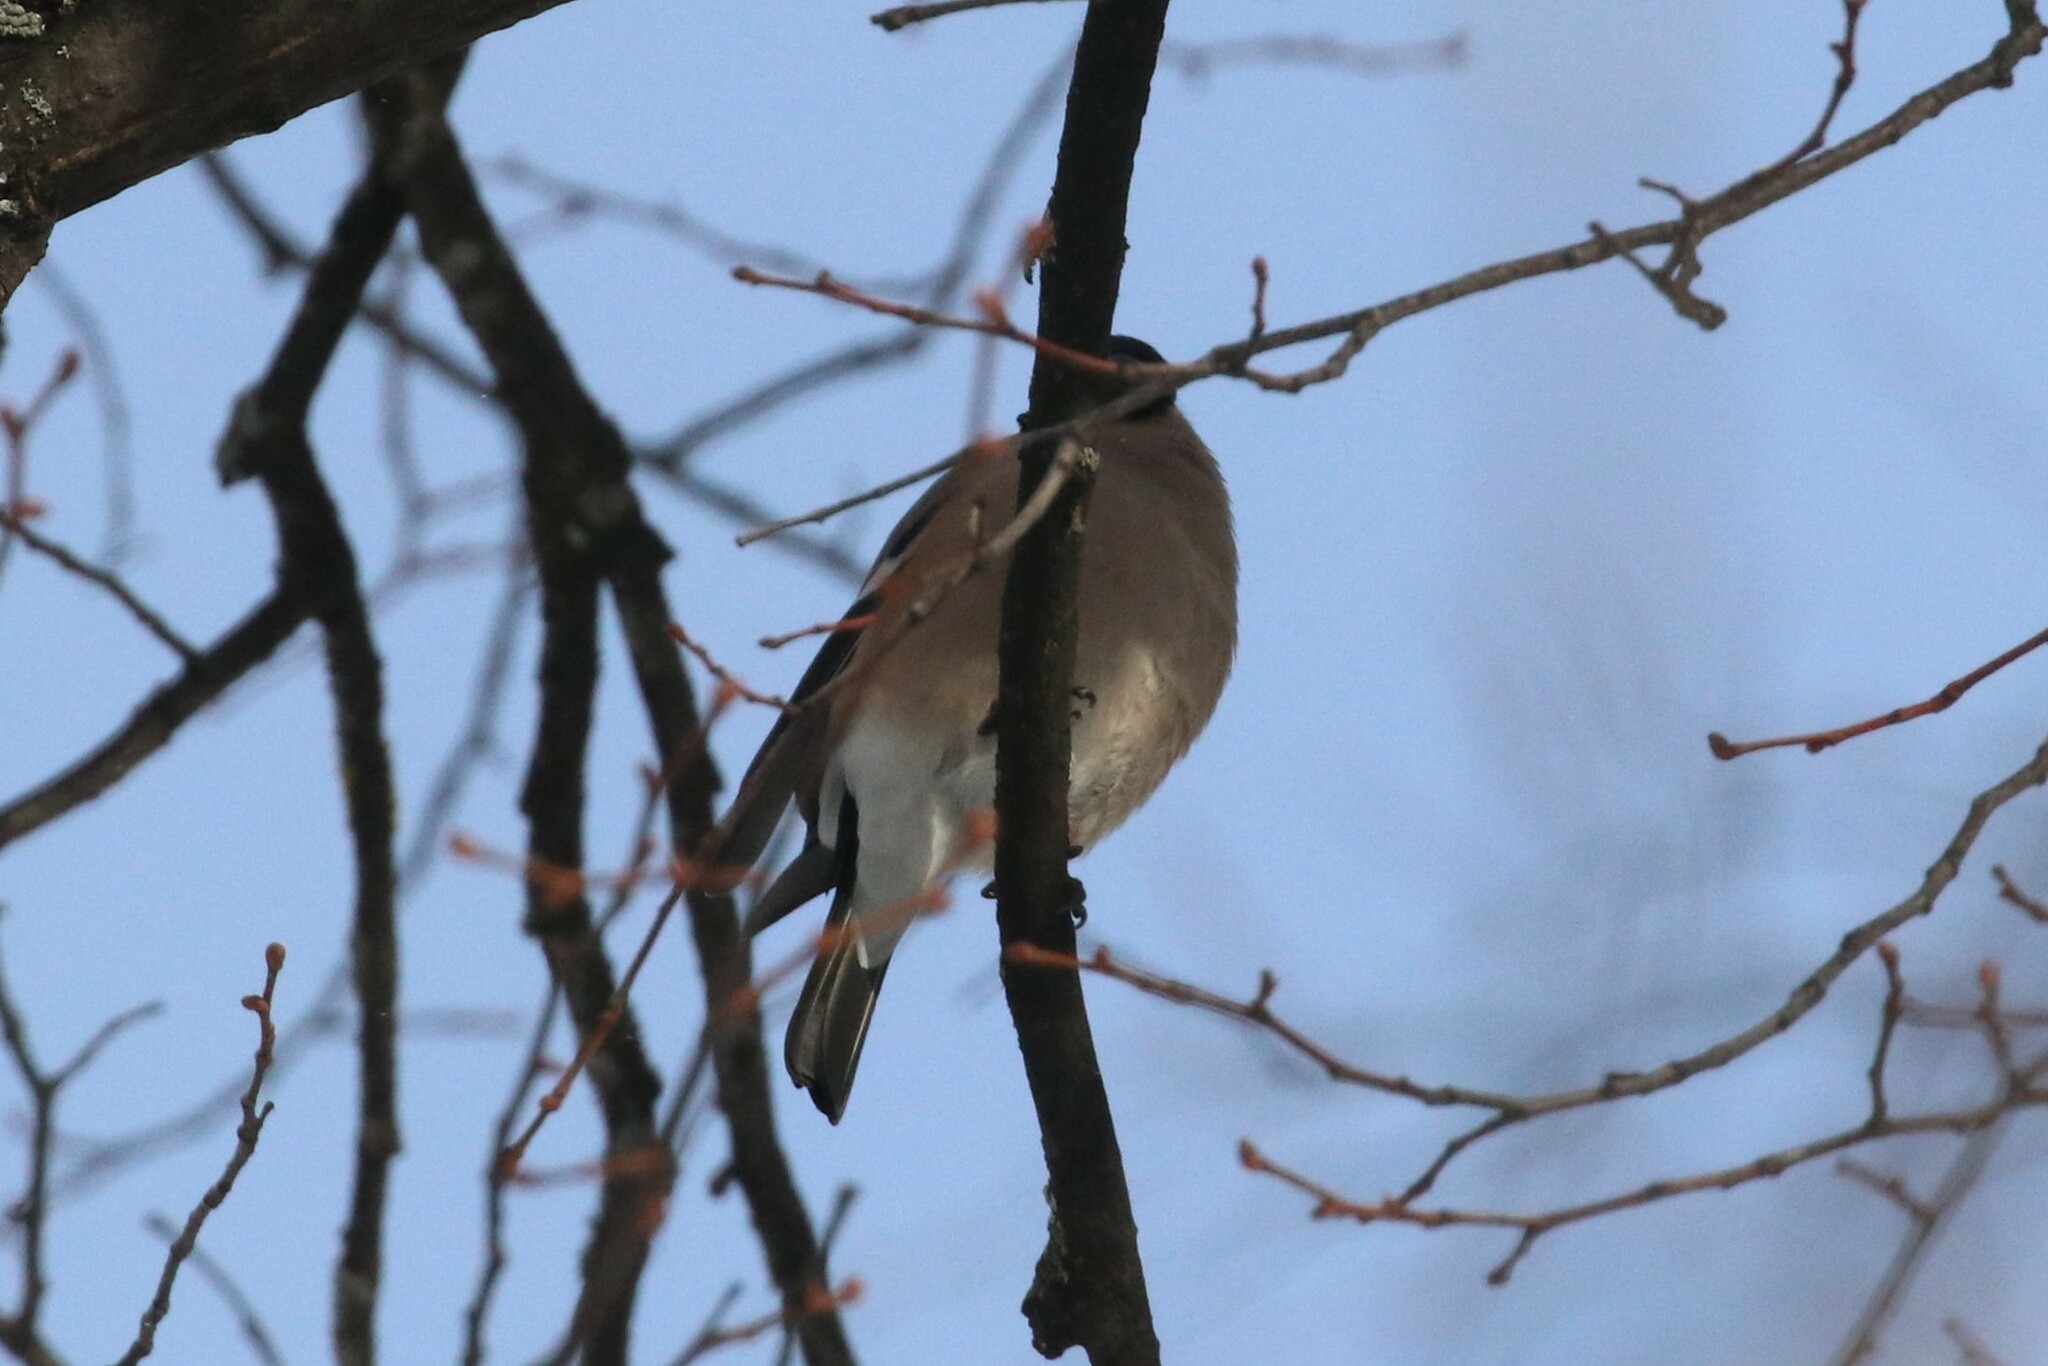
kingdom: Animalia
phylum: Chordata
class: Aves
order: Passeriformes
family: Fringillidae
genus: Pyrrhula
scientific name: Pyrrhula pyrrhula
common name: Eurasian bullfinch
